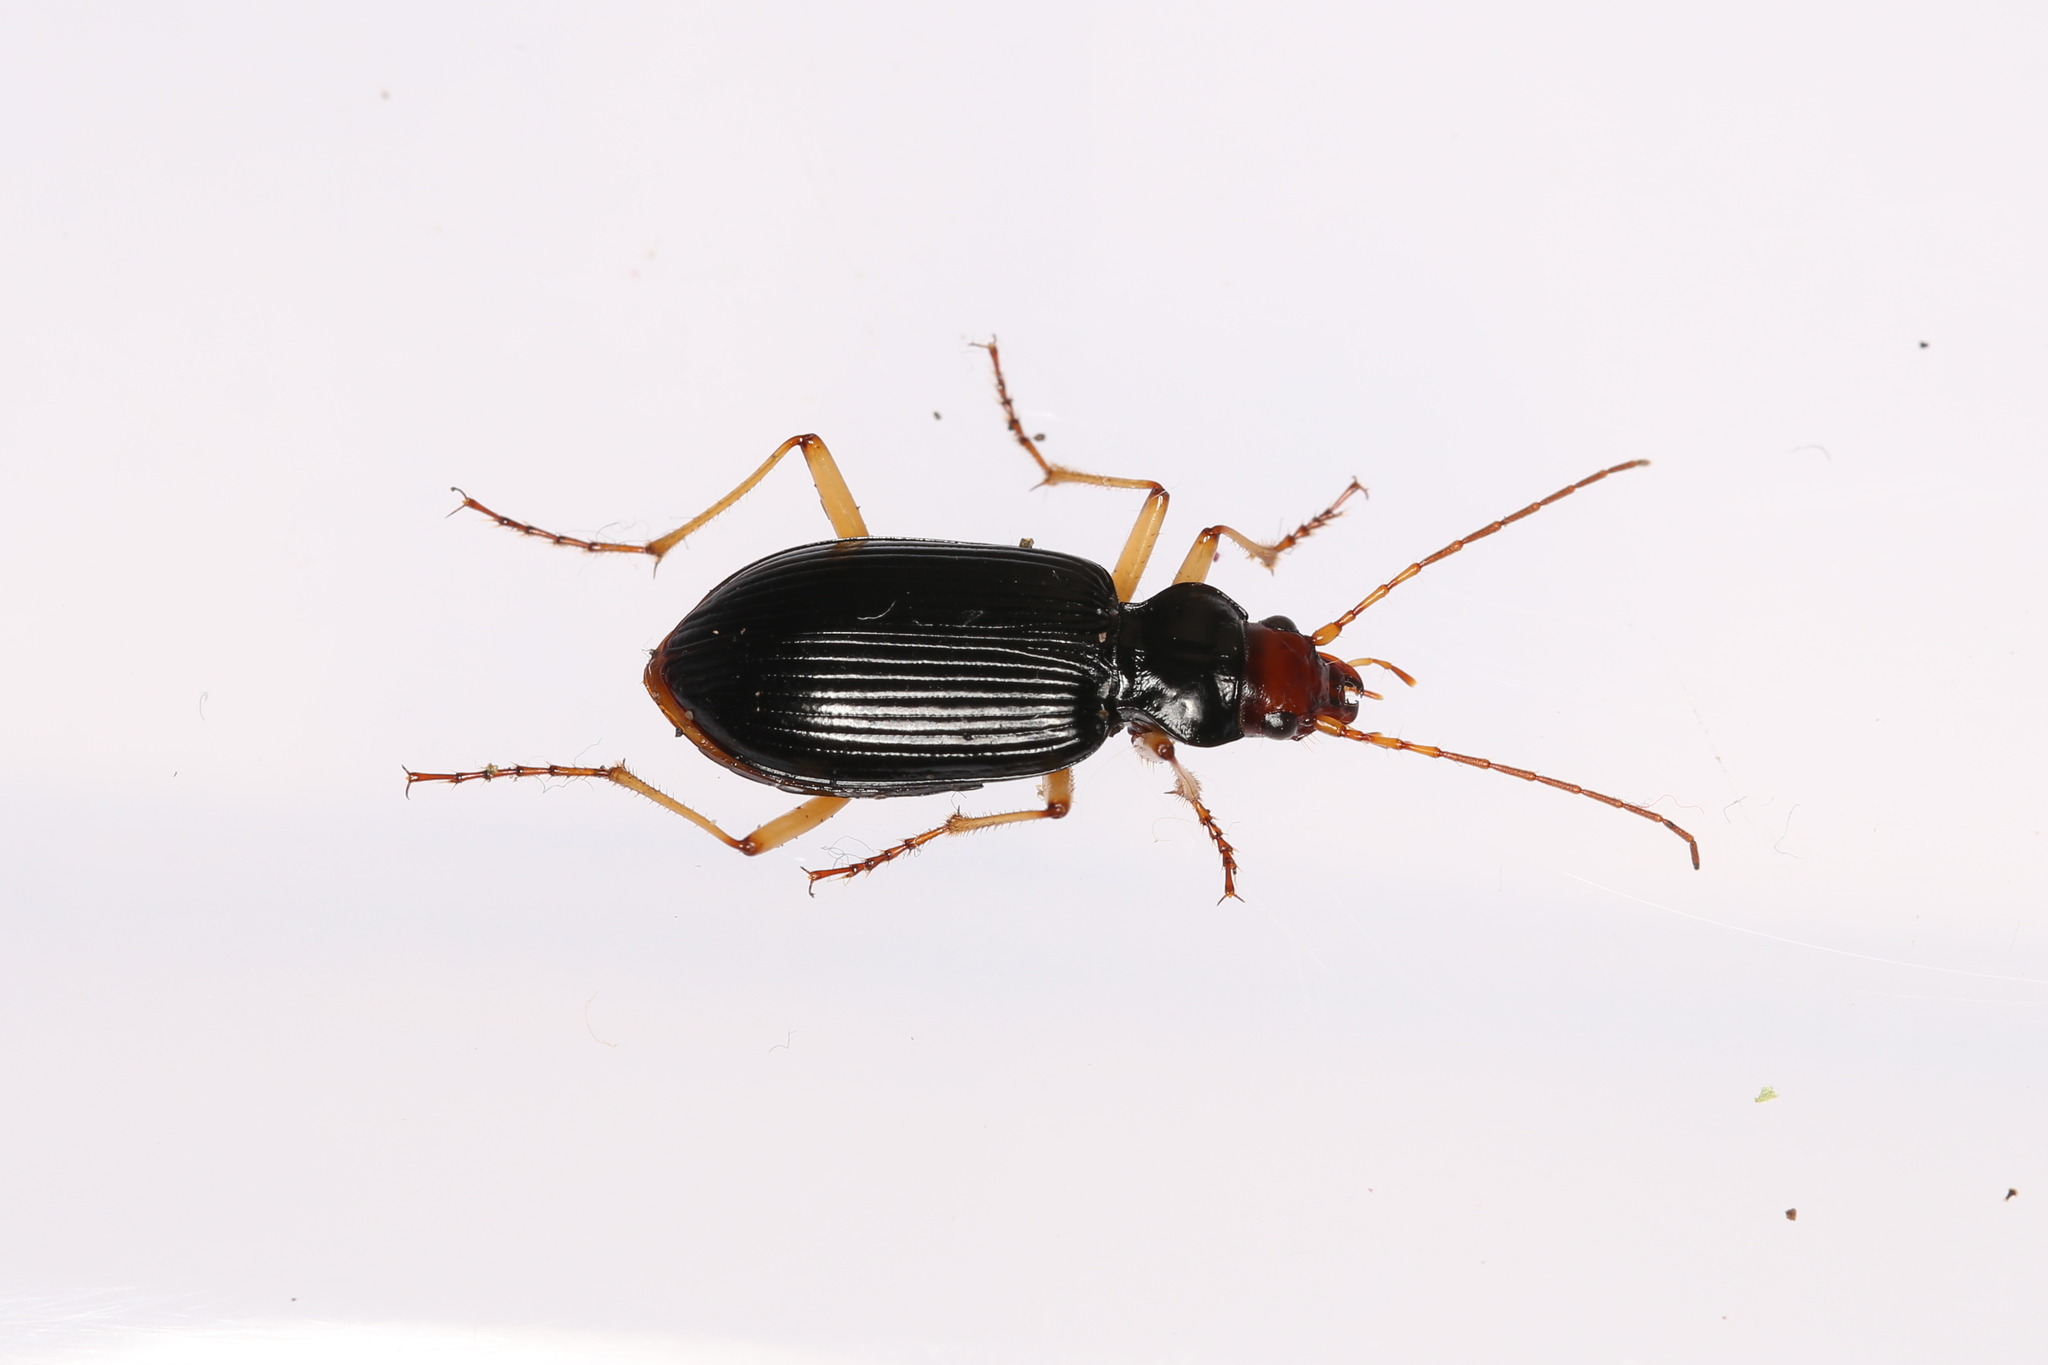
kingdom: Animalia
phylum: Arthropoda
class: Insecta
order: Coleoptera
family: Carabidae
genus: Nebria
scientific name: Nebria picicornis
